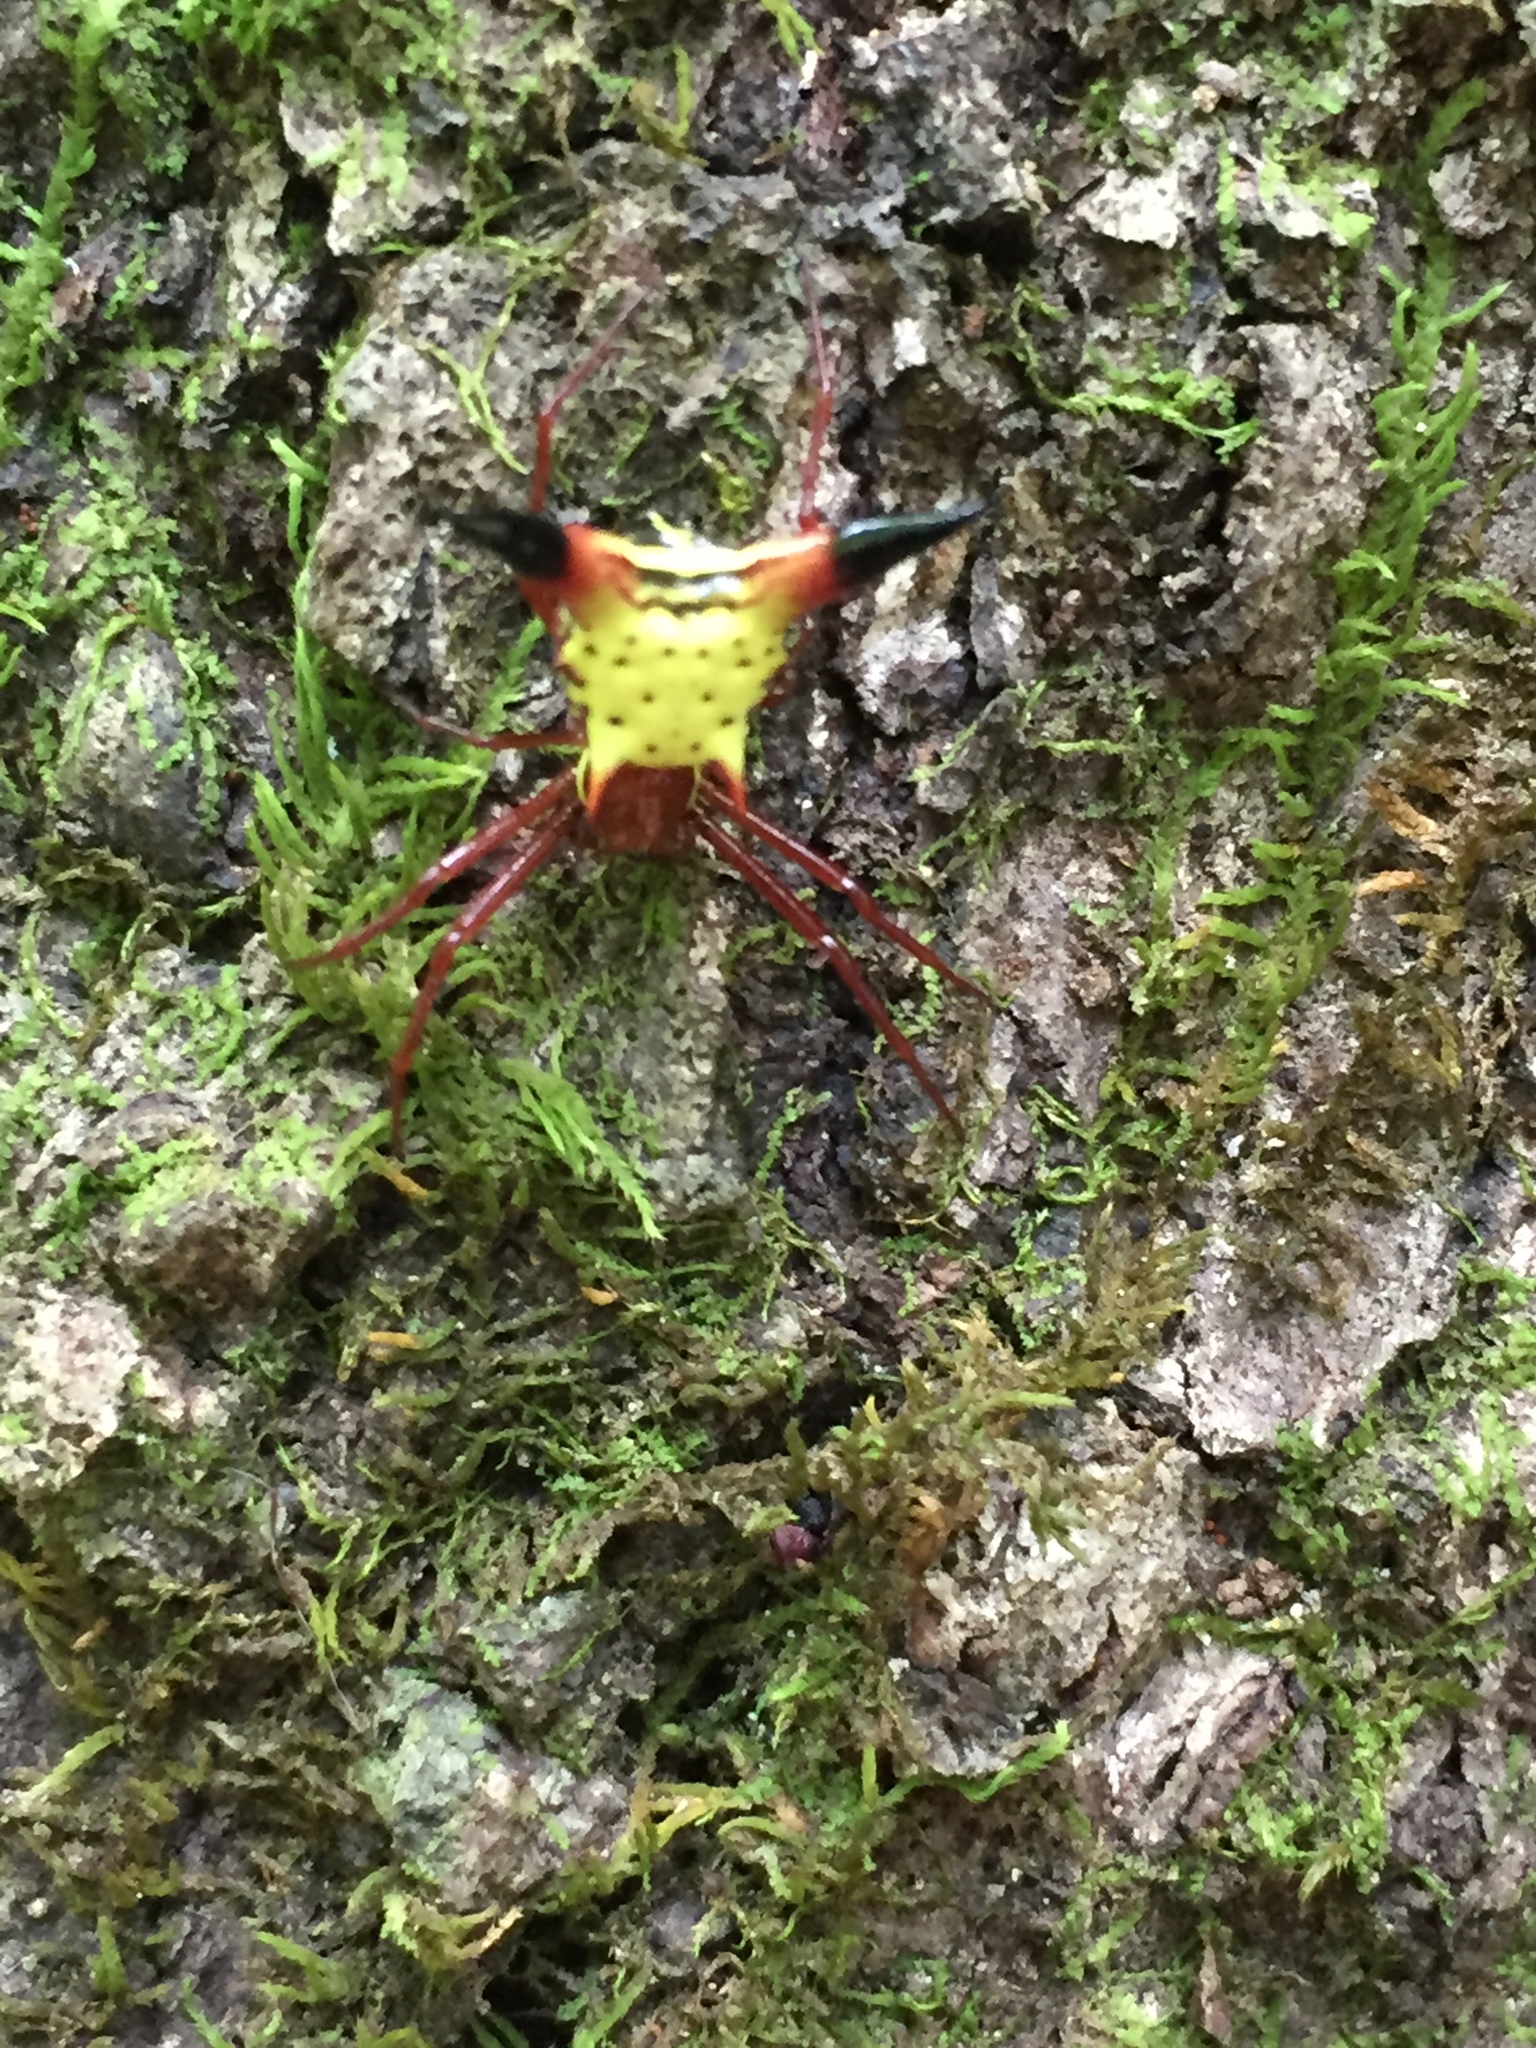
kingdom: Animalia
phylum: Arthropoda
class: Arachnida
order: Araneae
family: Araneidae
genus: Micrathena
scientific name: Micrathena sagittata
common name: Orb weavers
